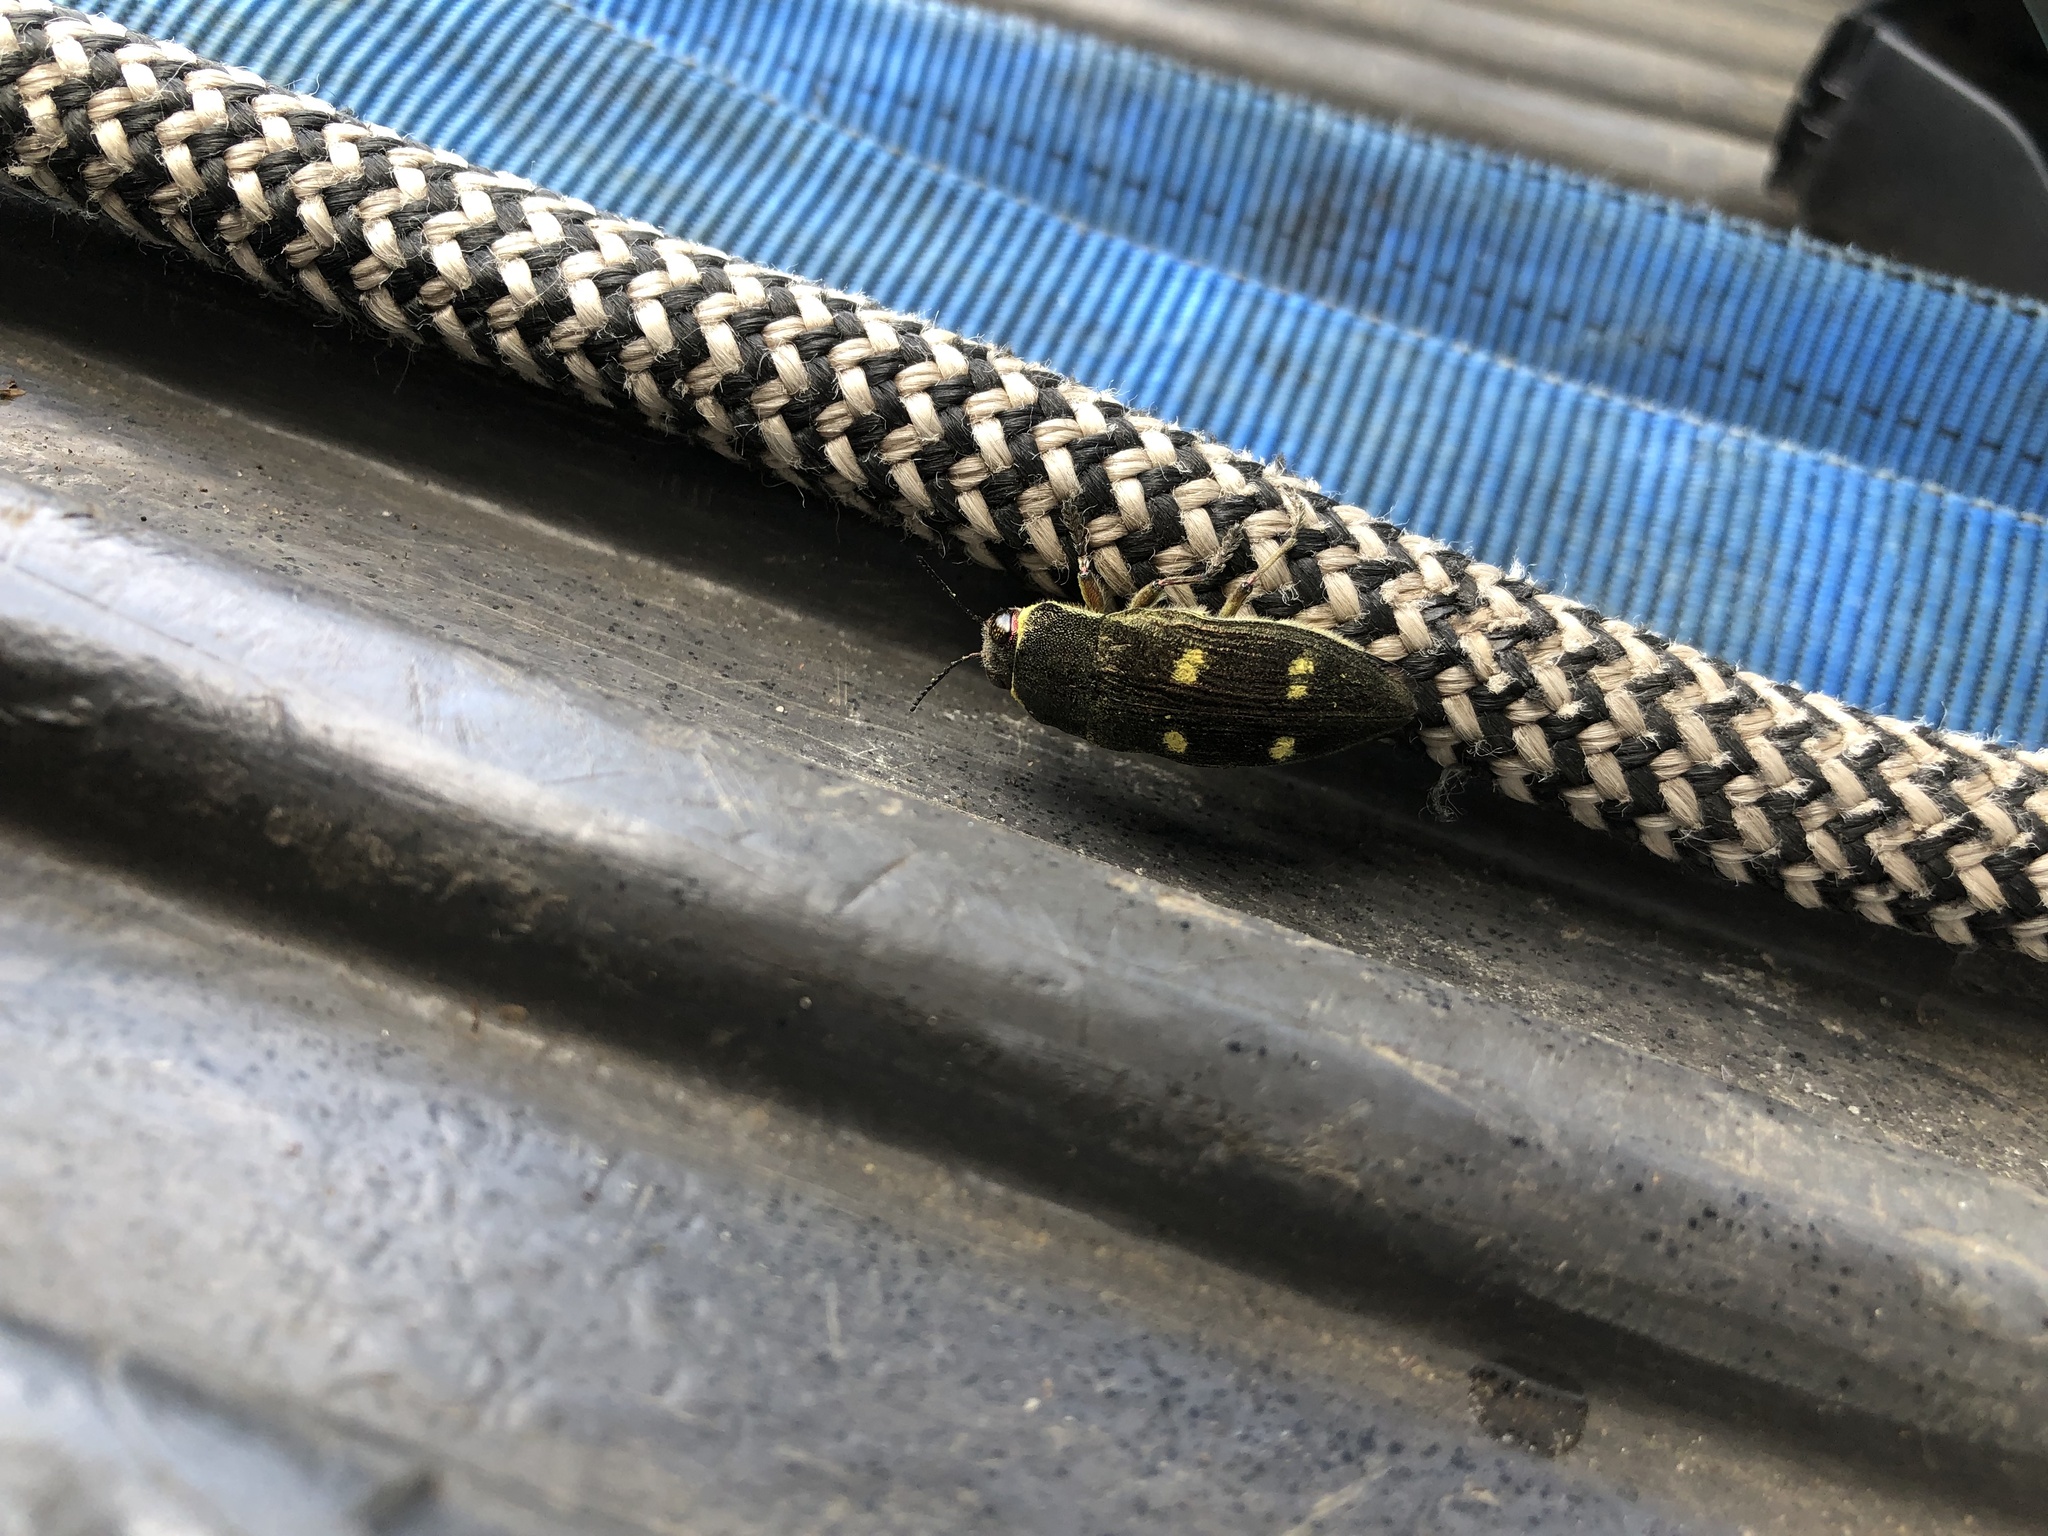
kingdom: Animalia
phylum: Arthropoda
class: Insecta
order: Coleoptera
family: Buprestidae
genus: Baudonisia
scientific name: Baudonisia villosiventris
